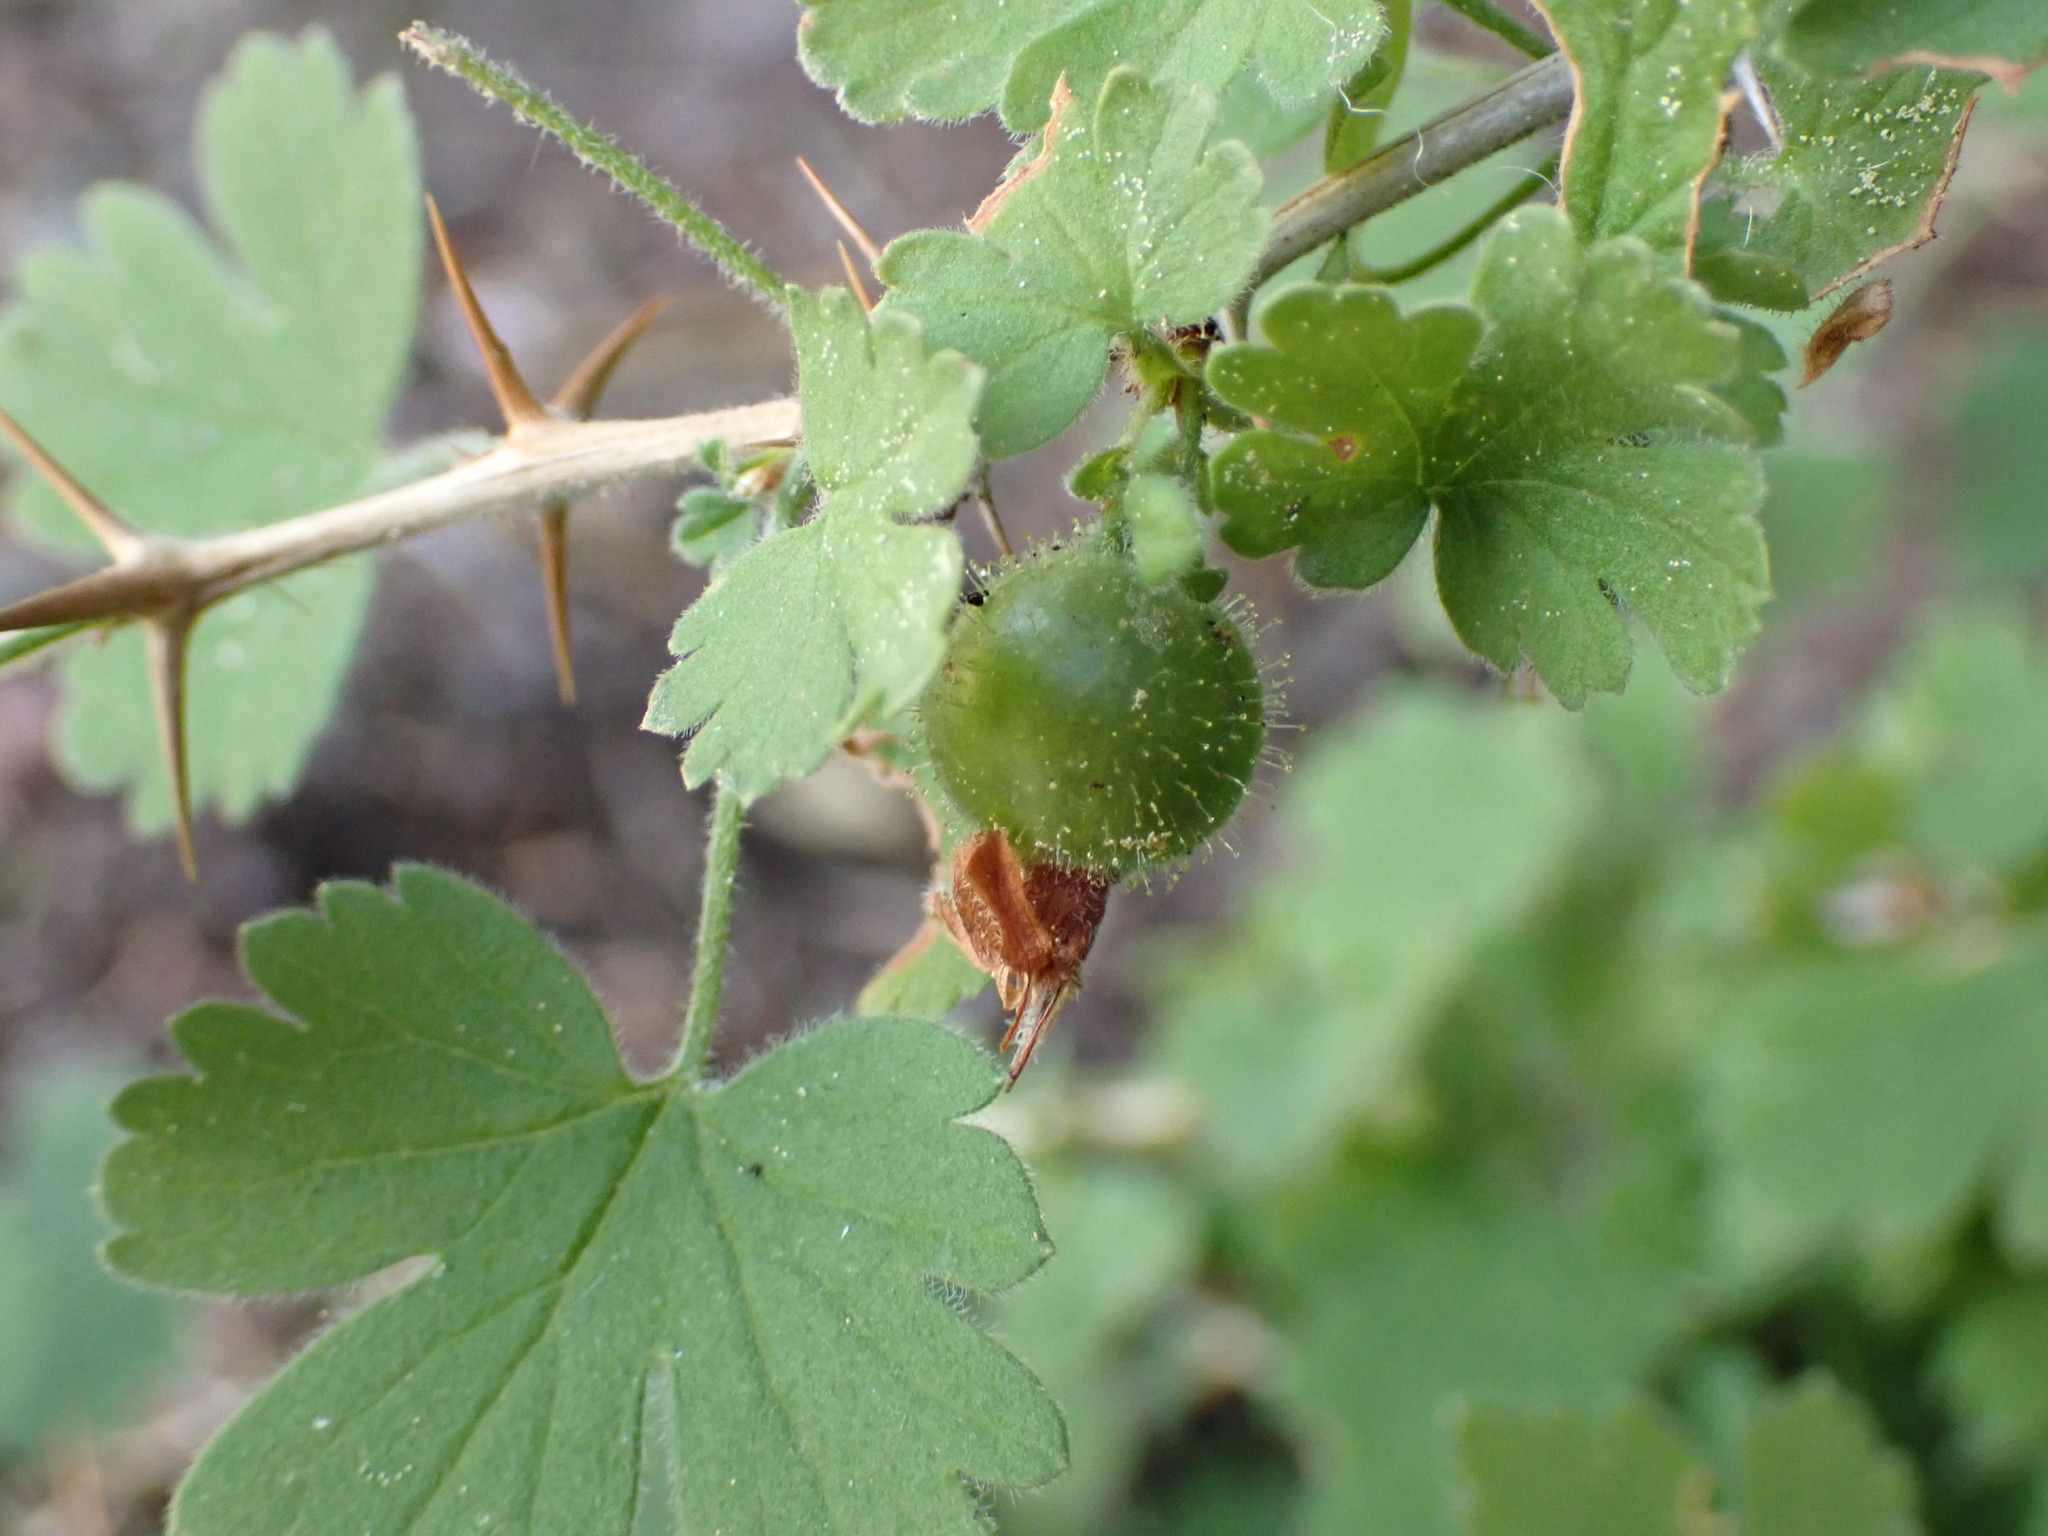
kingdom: Plantae
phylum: Tracheophyta
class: Magnoliopsida
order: Saxifragales
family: Grossulariaceae
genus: Ribes
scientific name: Ribes uva-crispa
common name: Gooseberry
